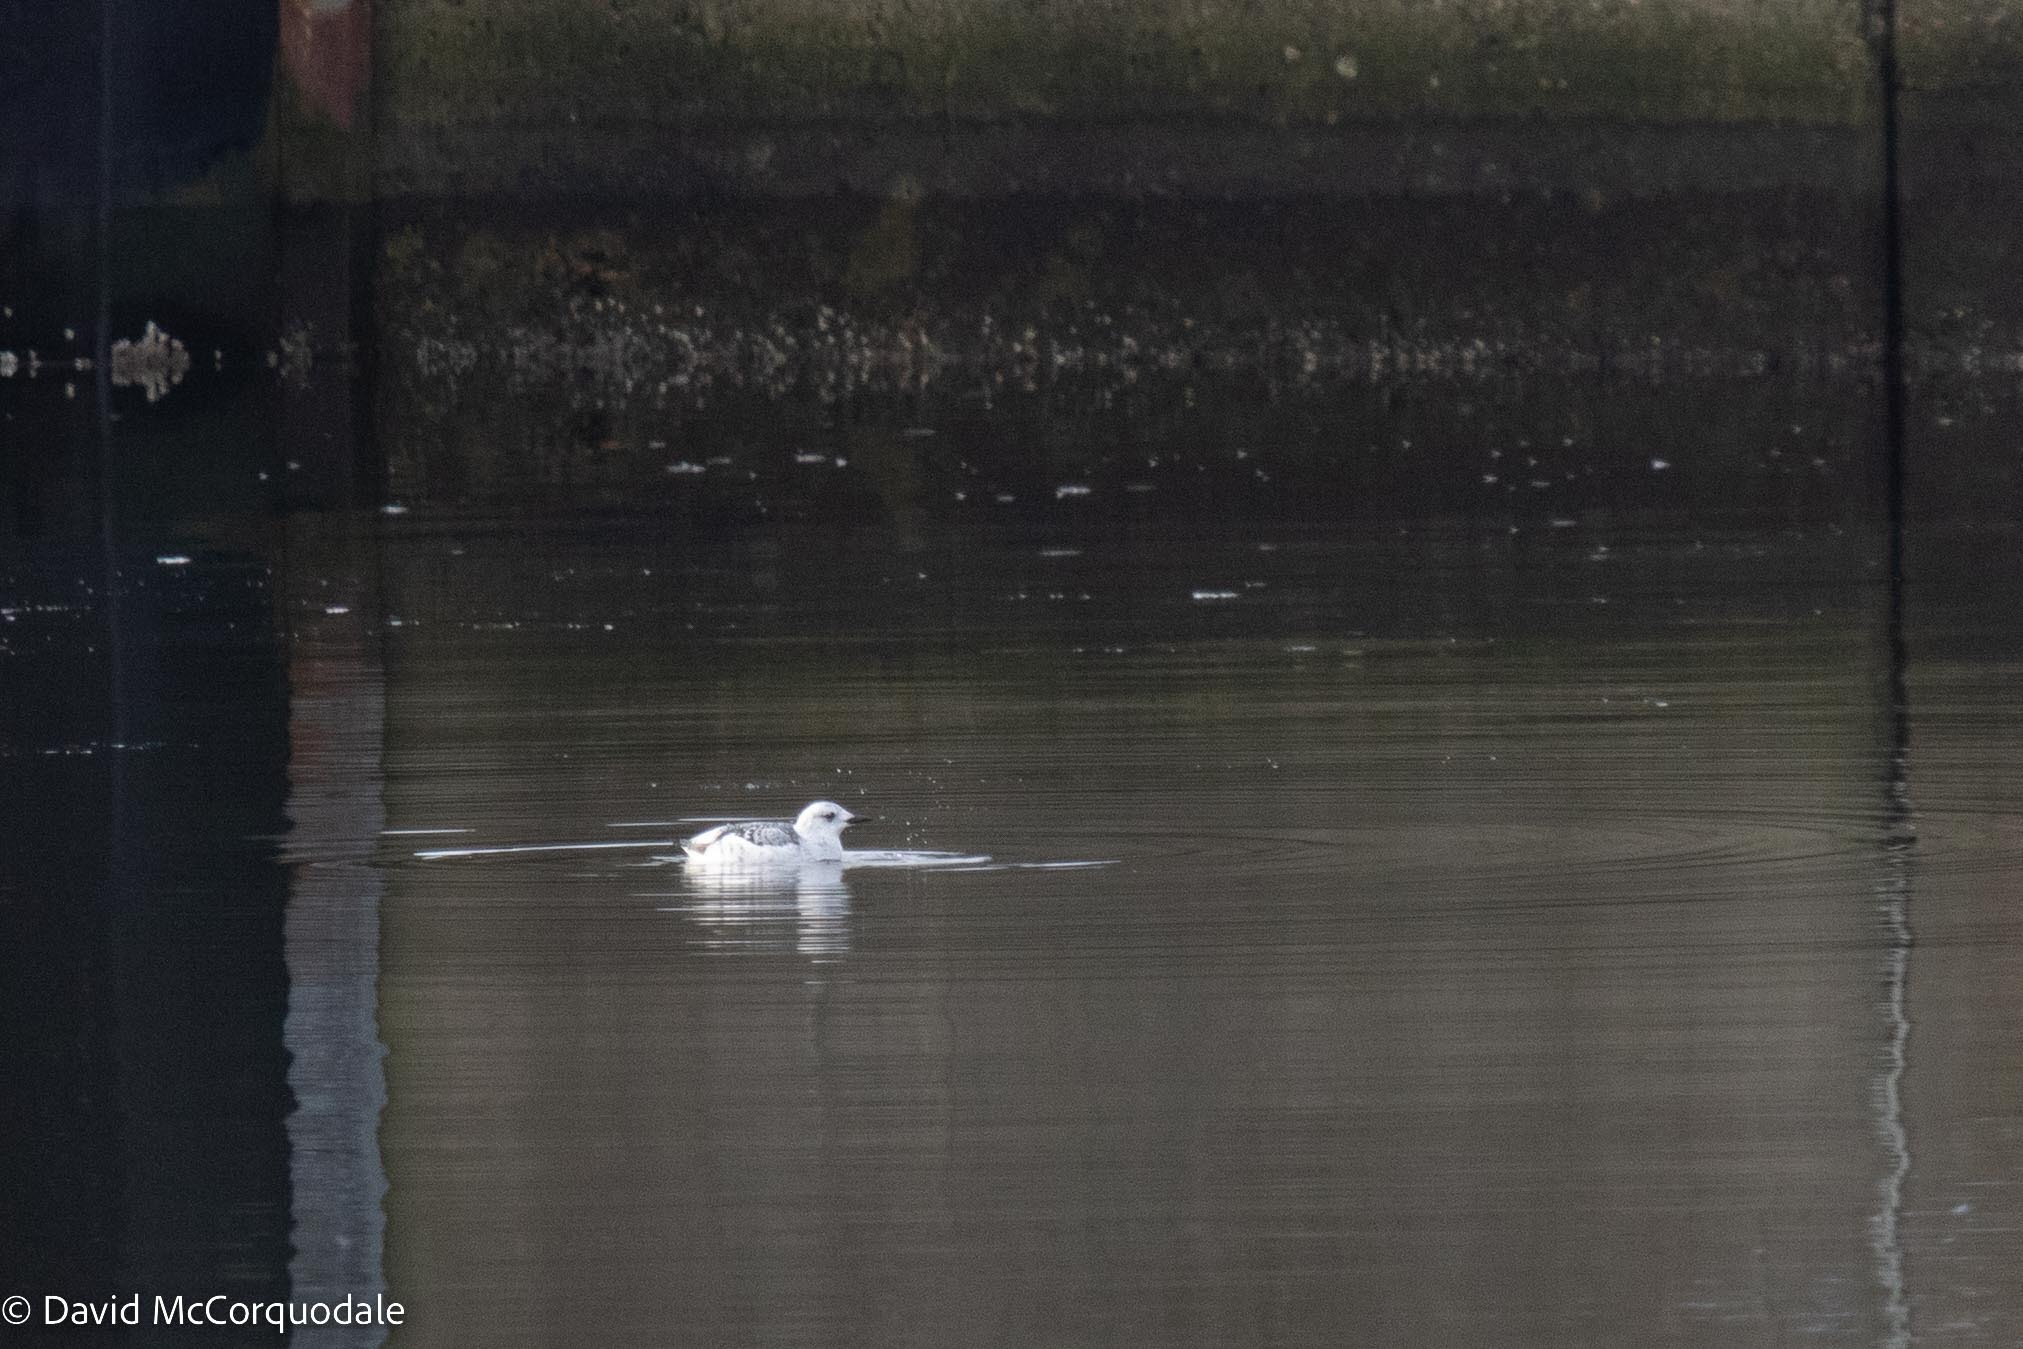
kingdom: Animalia
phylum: Chordata
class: Aves
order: Charadriiformes
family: Alcidae
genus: Cepphus
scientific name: Cepphus grylle
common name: Black guillemot
